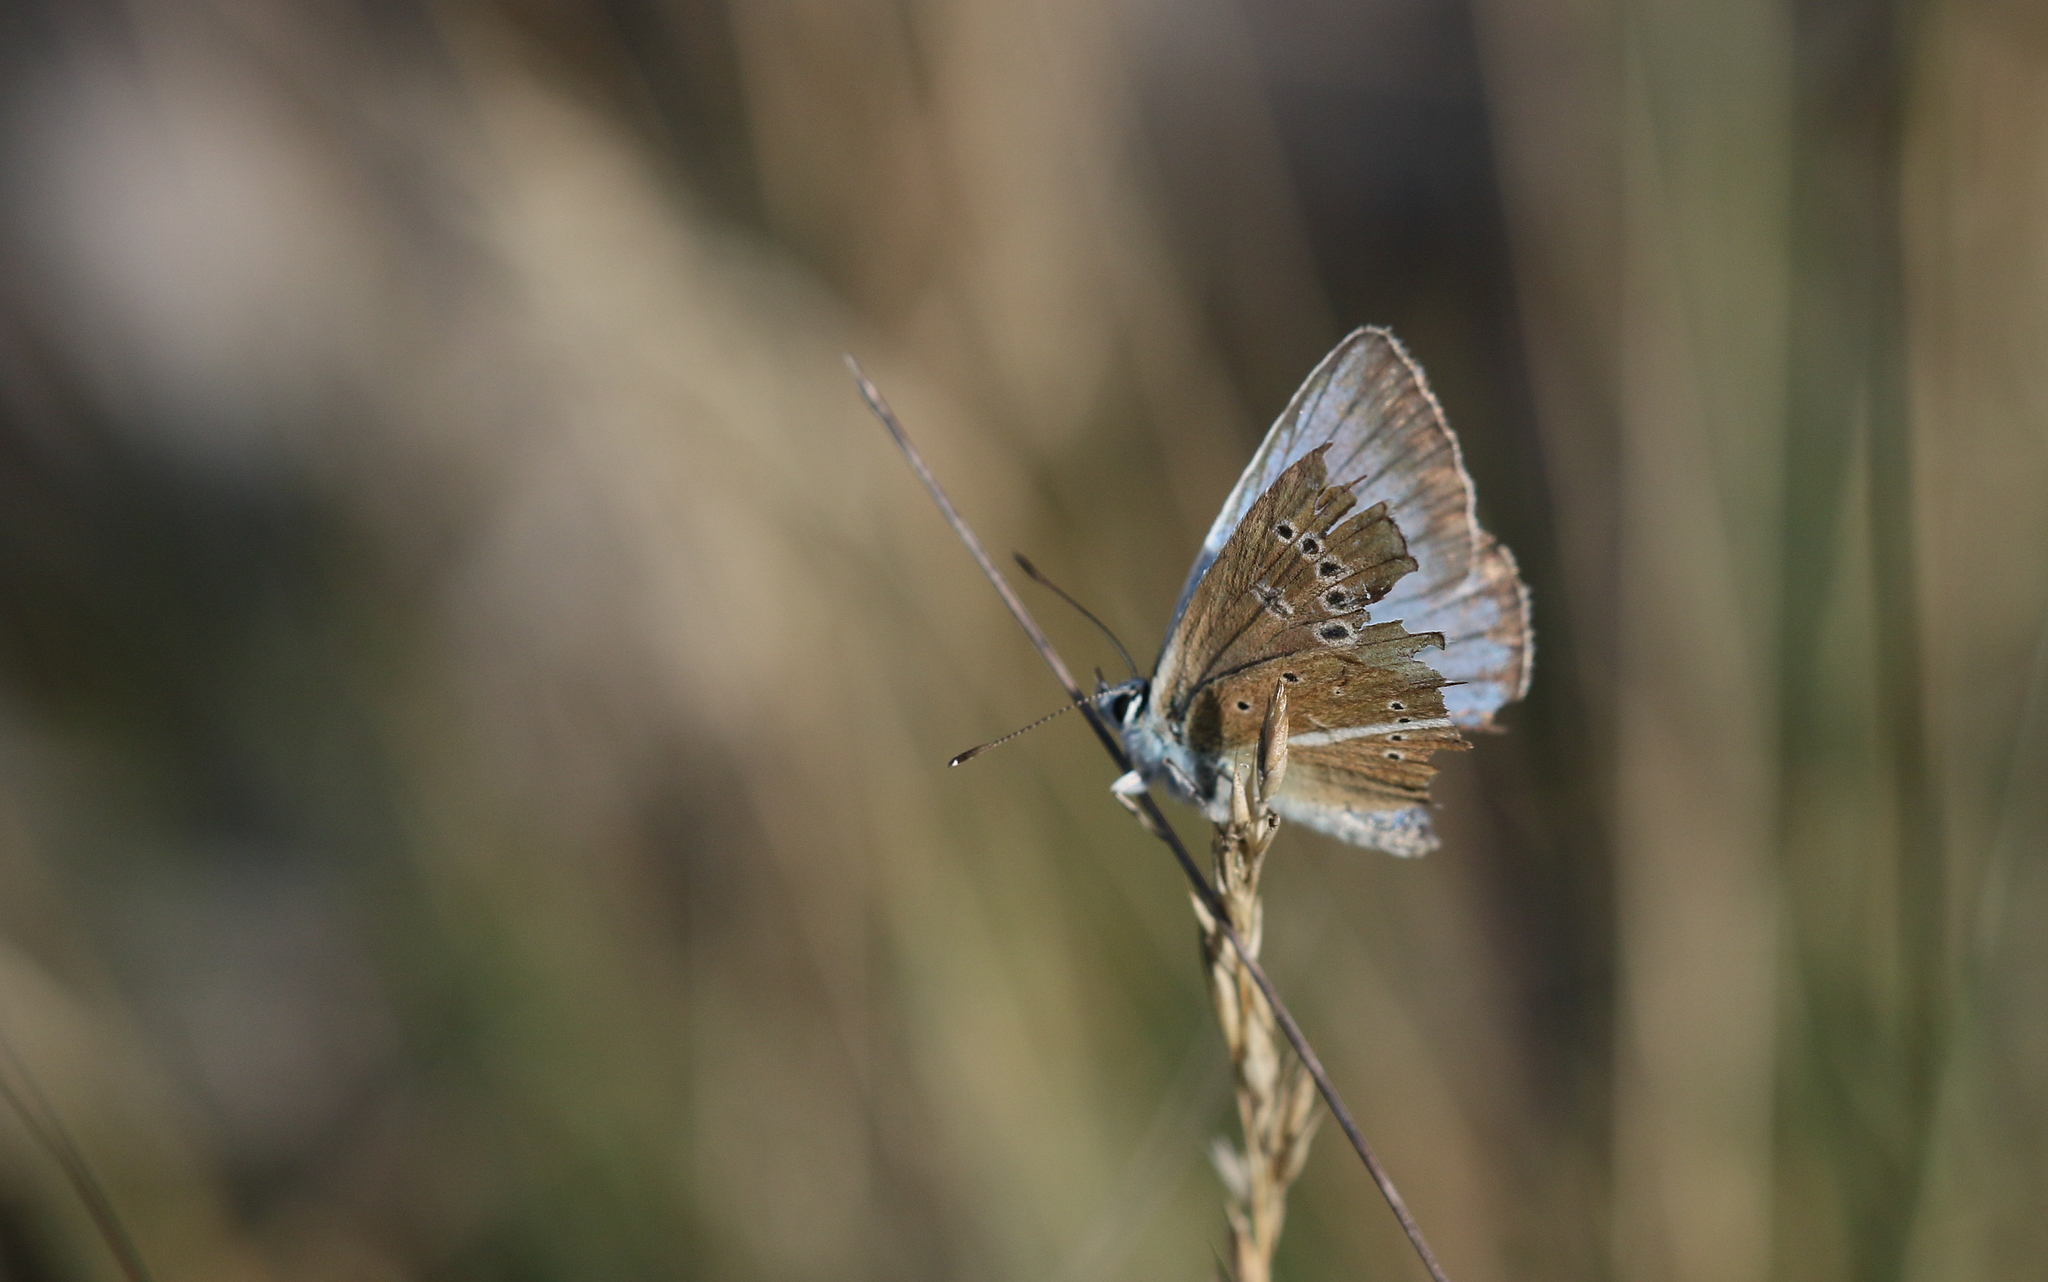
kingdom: Animalia
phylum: Arthropoda
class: Insecta
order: Lepidoptera
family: Lycaenidae
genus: Agrodiaetus
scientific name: Agrodiaetus damon
